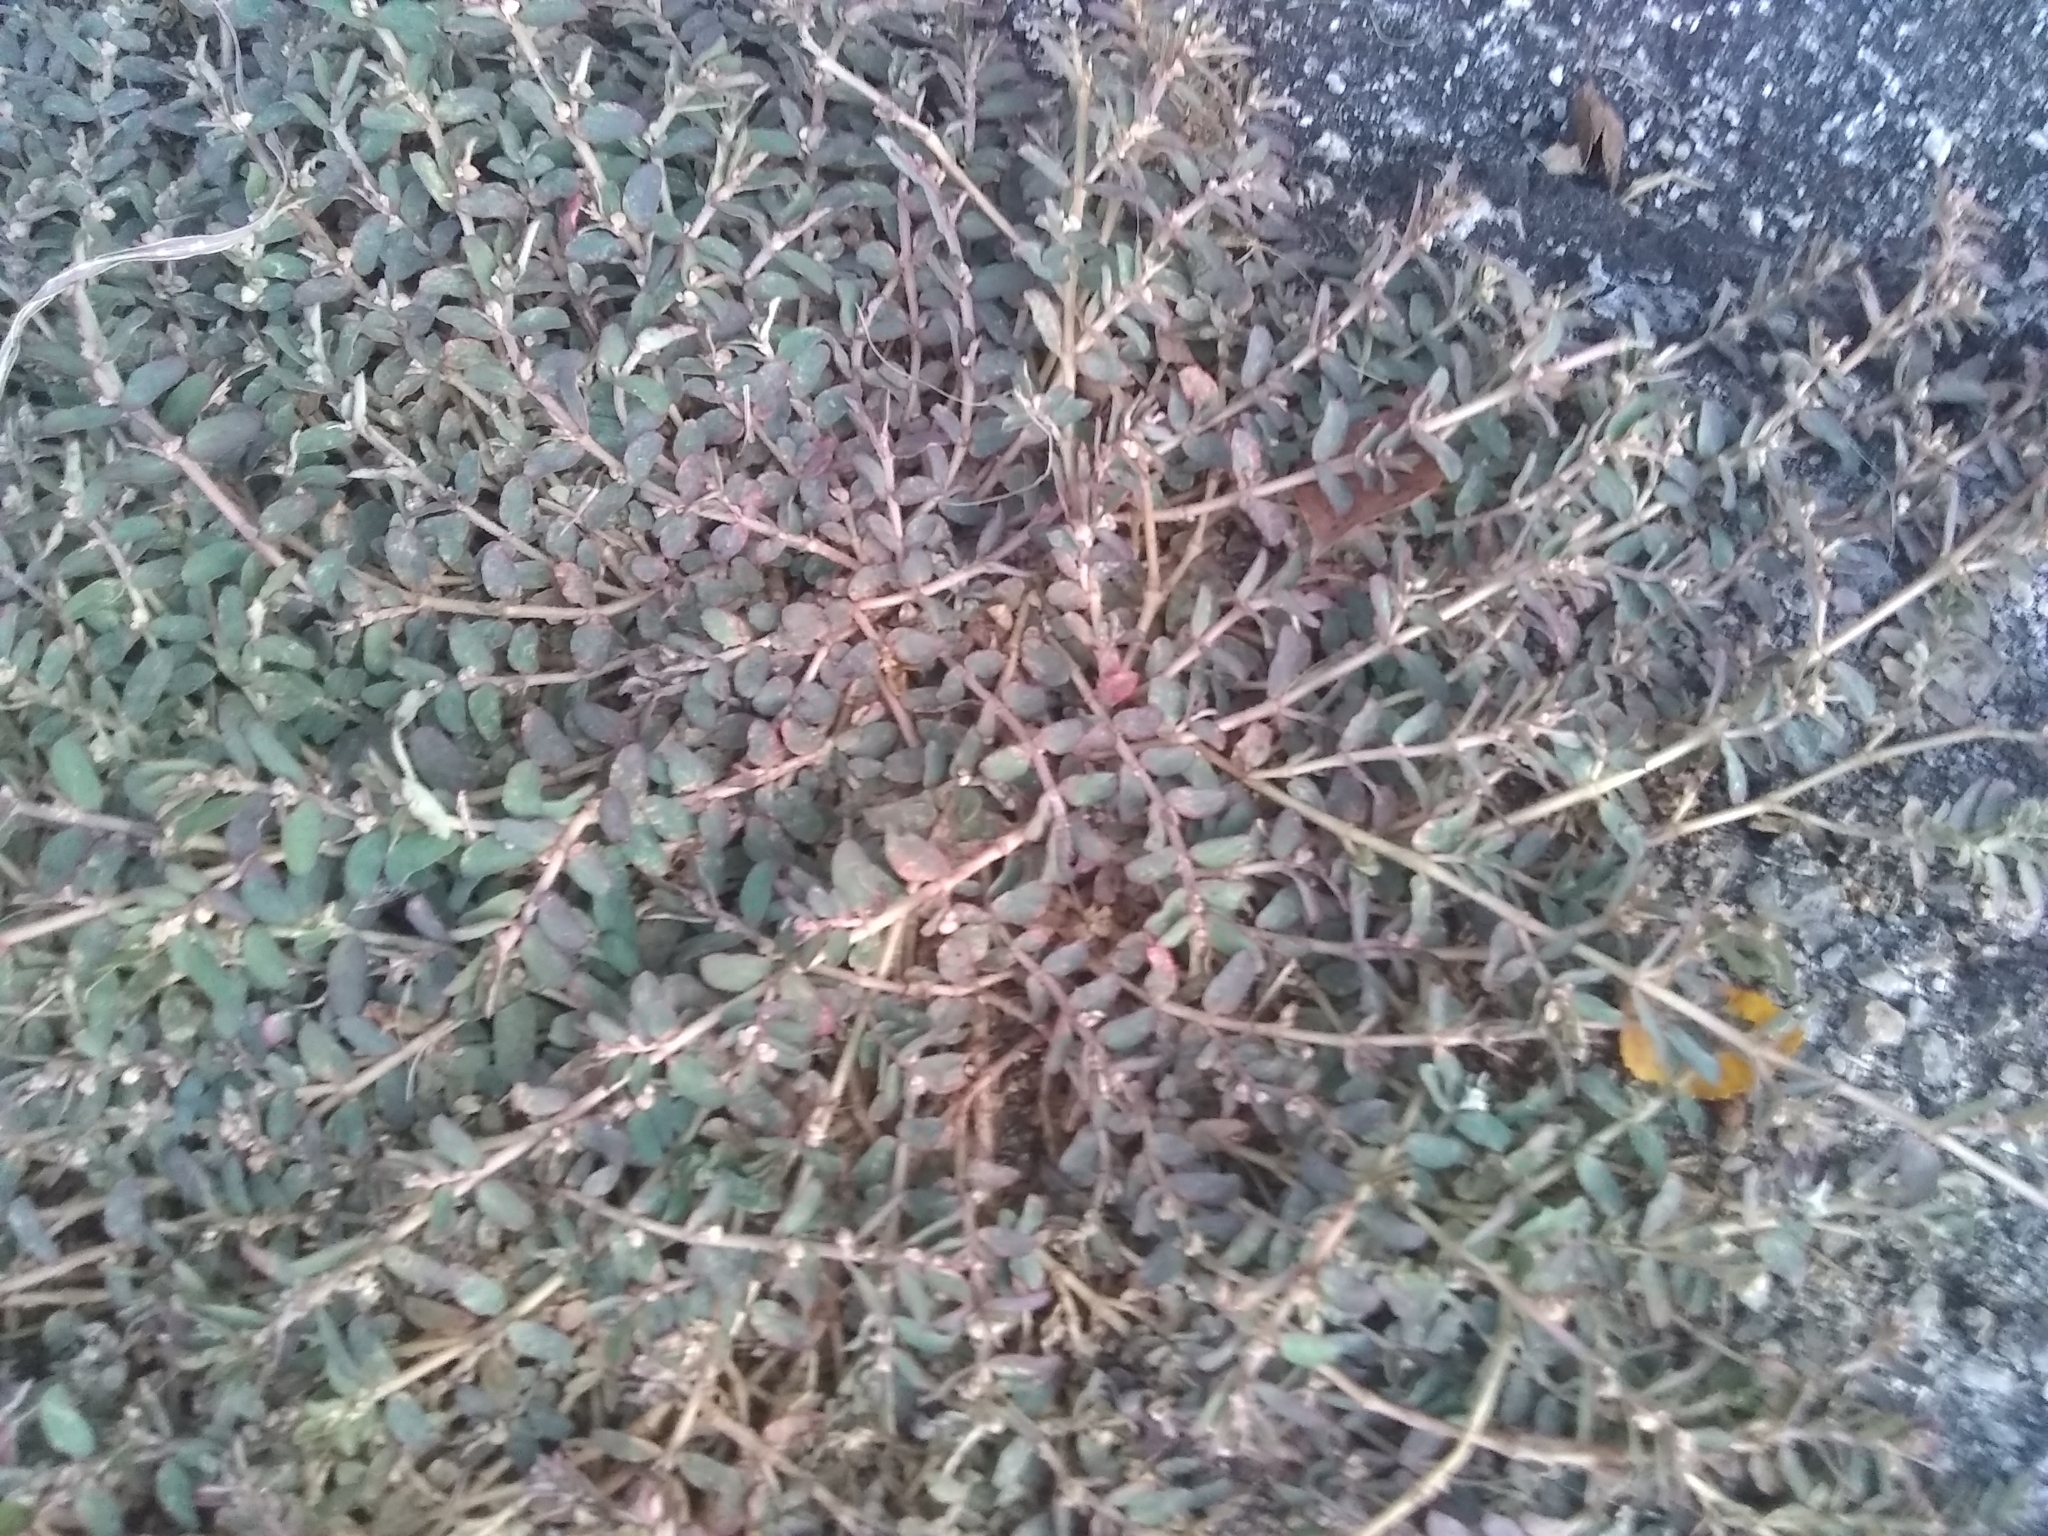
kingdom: Plantae
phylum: Tracheophyta
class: Magnoliopsida
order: Malpighiales
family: Euphorbiaceae
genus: Euphorbia
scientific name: Euphorbia maculata
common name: Spotted spurge
